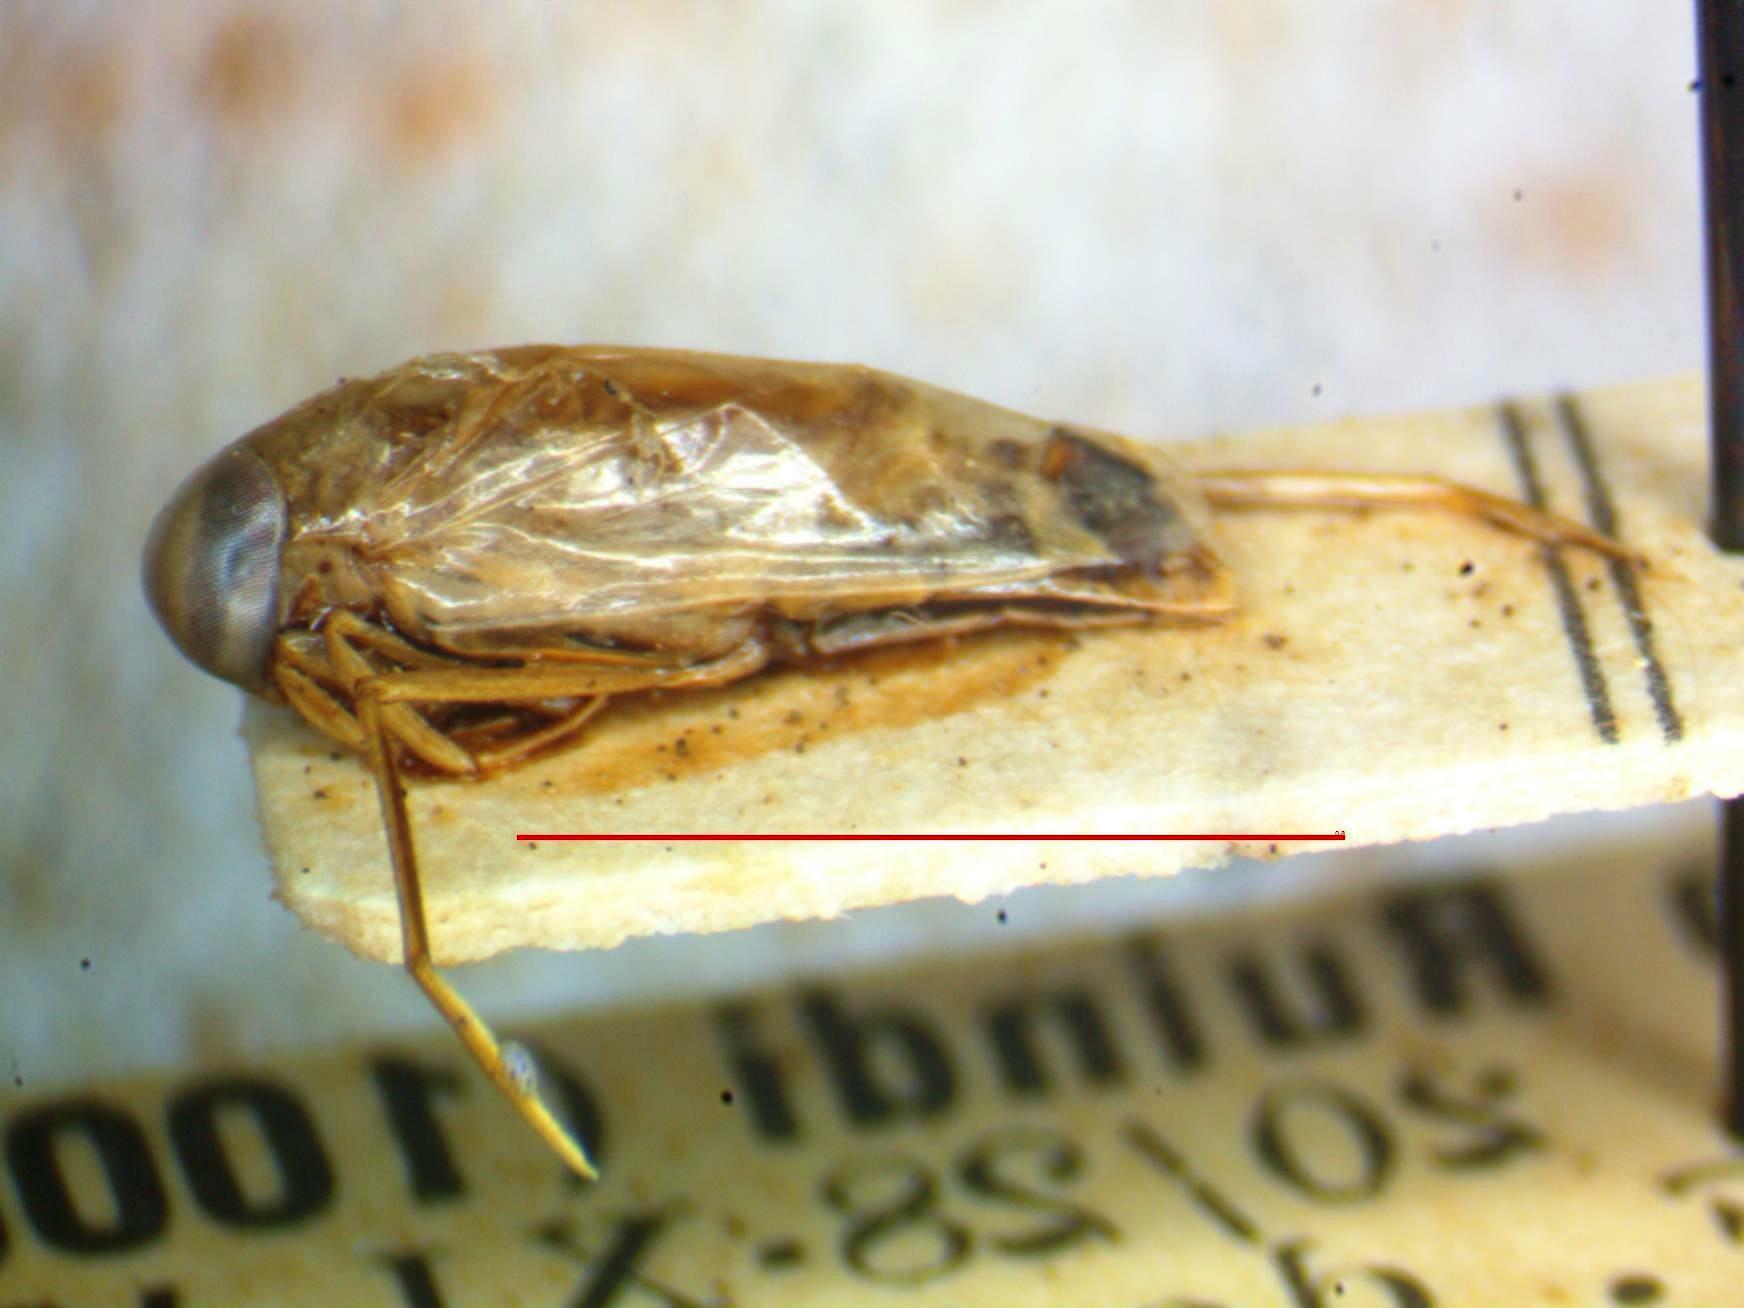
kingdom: Animalia
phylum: Arthropoda
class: Insecta
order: Hemiptera
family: Notonectidae
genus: Anisops
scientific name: Anisops debilis
